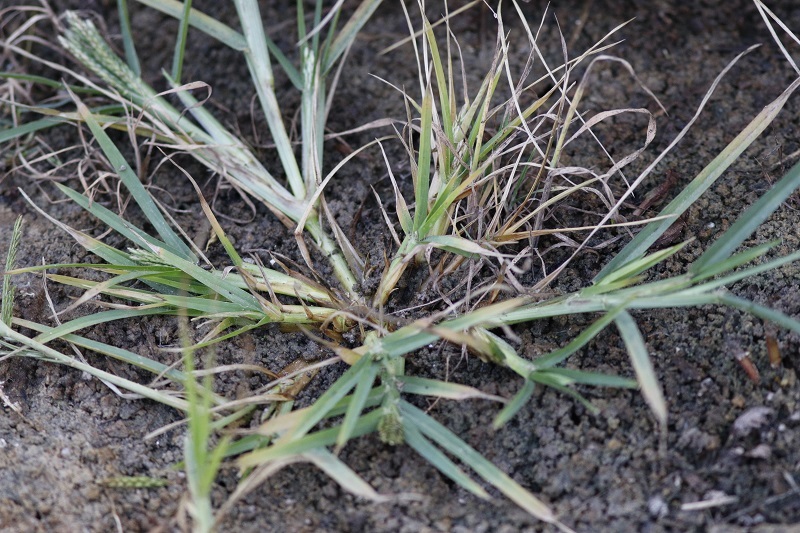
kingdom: Plantae
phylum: Tracheophyta
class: Liliopsida
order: Poales
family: Poaceae
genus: Eleusine
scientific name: Eleusine indica
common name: Yard-grass
